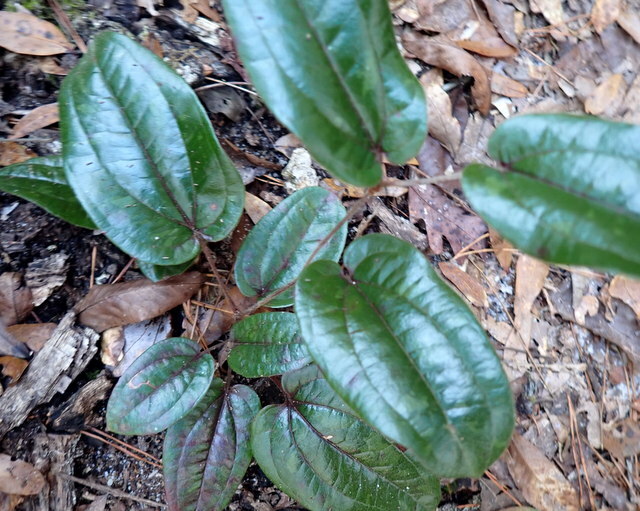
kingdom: Plantae
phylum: Tracheophyta
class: Liliopsida
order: Liliales
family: Smilacaceae
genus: Smilax
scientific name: Smilax pumila
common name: Sarsaparilla-vine
